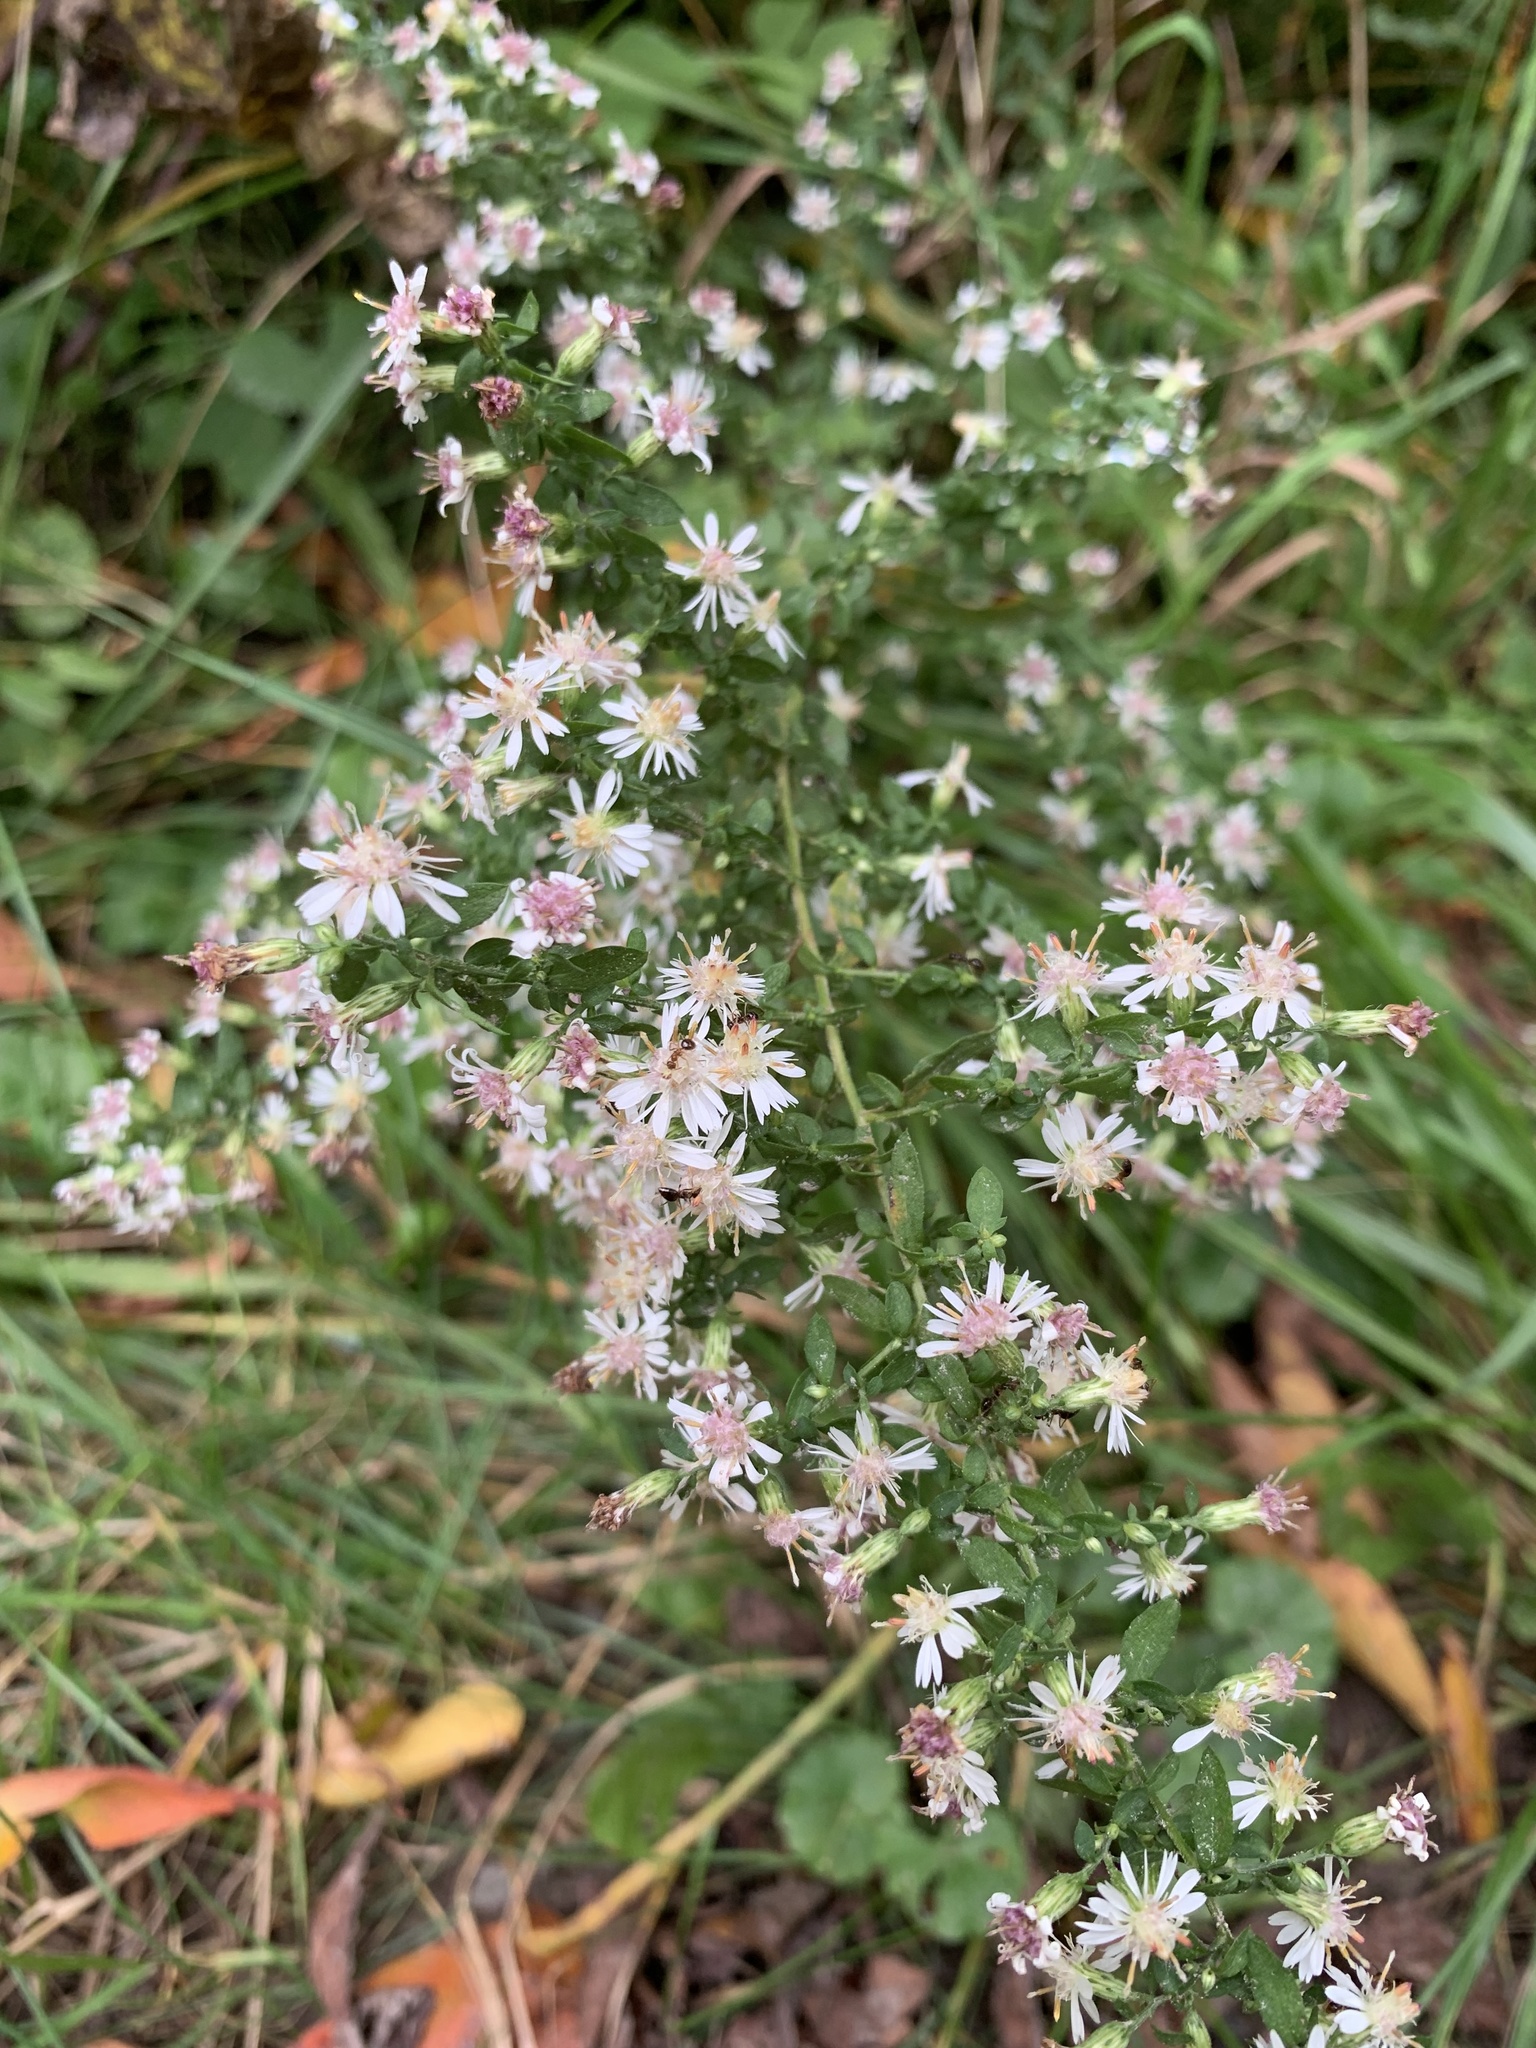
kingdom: Plantae
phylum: Tracheophyta
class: Magnoliopsida
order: Asterales
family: Asteraceae
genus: Symphyotrichum
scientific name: Symphyotrichum lateriflorum
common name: Calico aster
